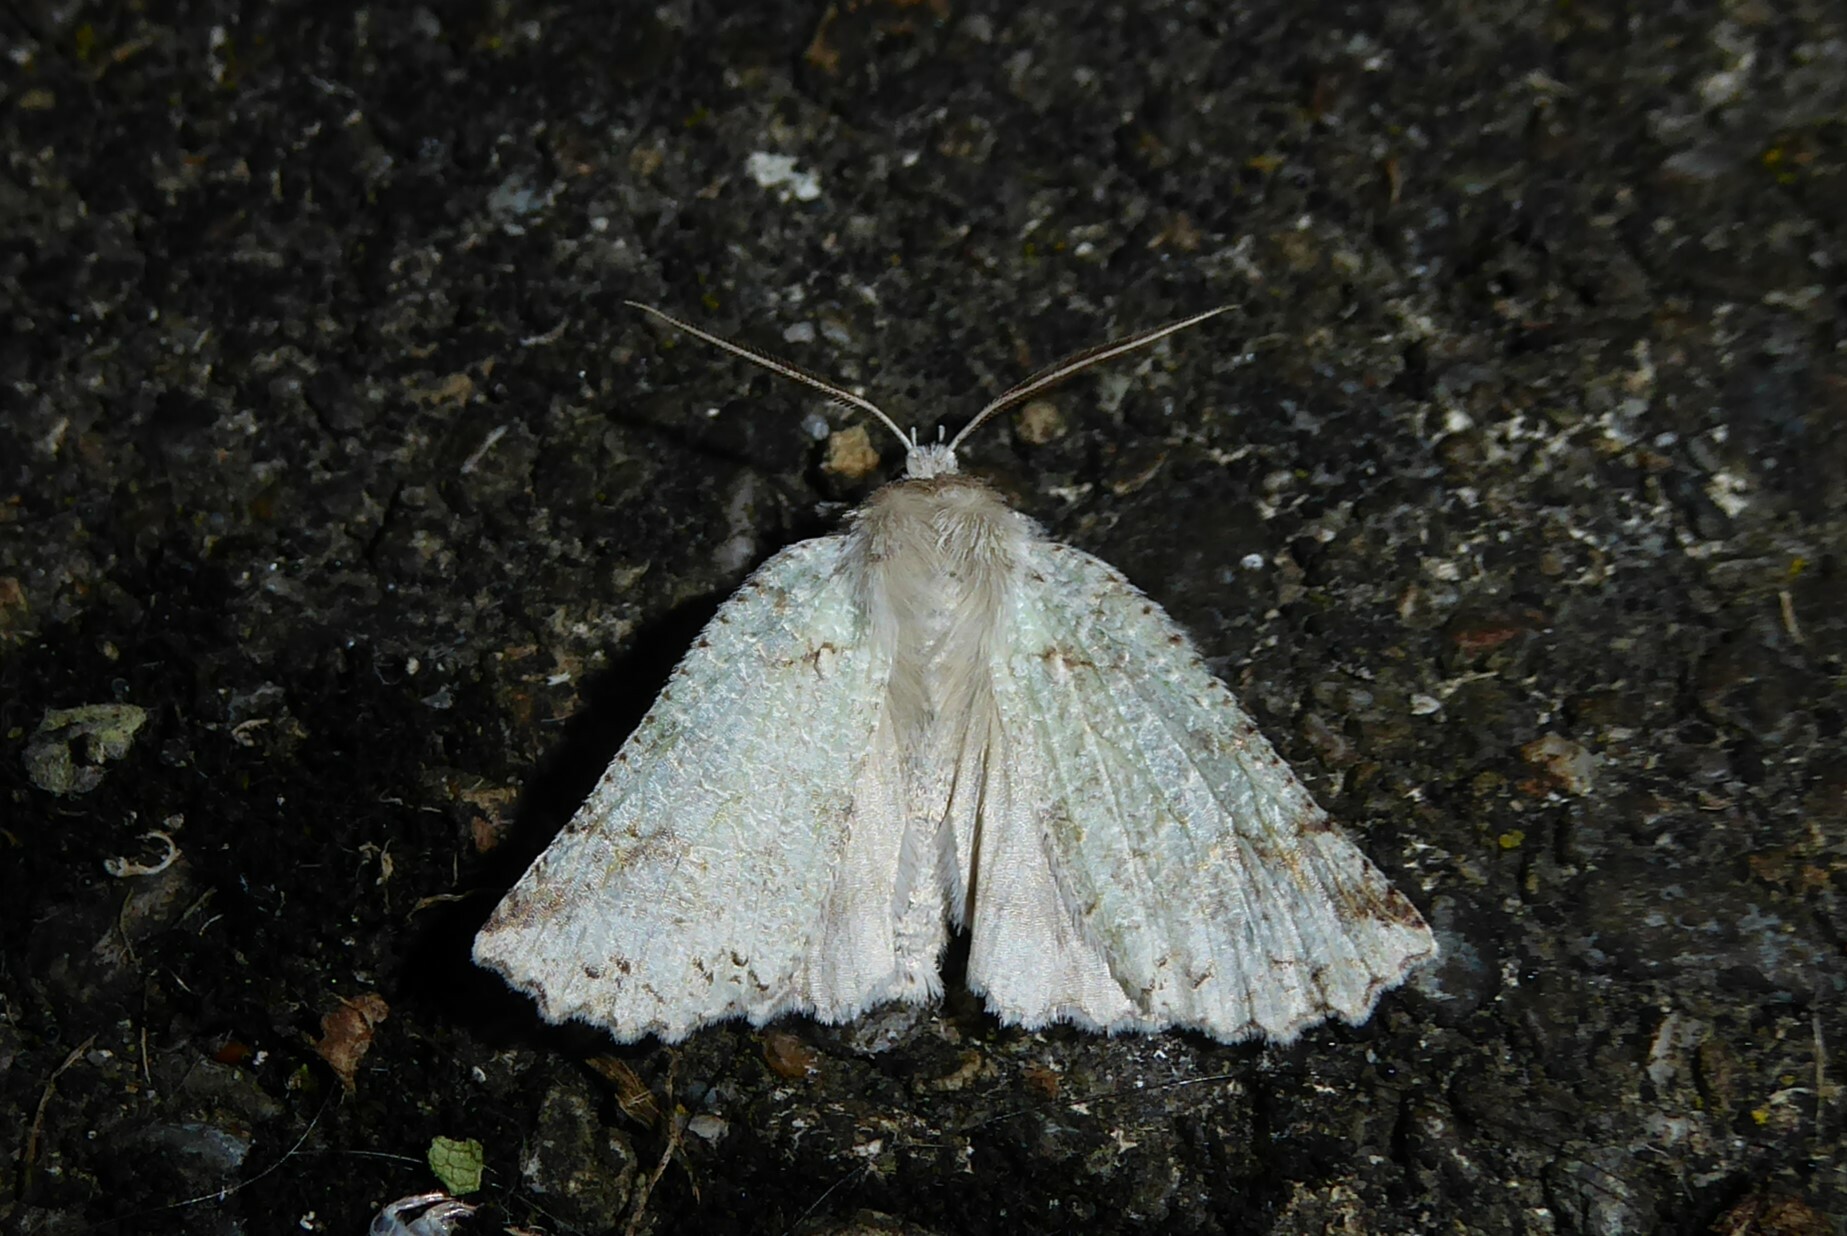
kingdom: Animalia
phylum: Arthropoda
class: Insecta
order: Lepidoptera
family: Geometridae
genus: Declana
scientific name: Declana floccosa
